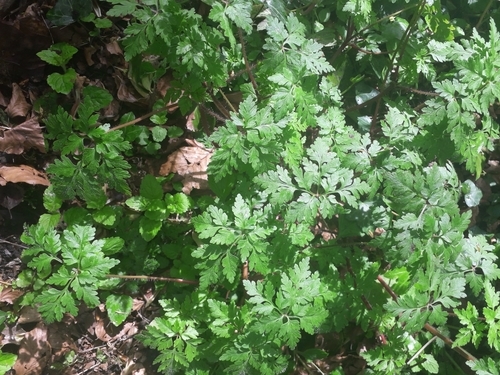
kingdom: Plantae
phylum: Tracheophyta
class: Magnoliopsida
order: Geraniales
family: Geraniaceae
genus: Geranium
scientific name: Geranium robertianum
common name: Herb-robert
